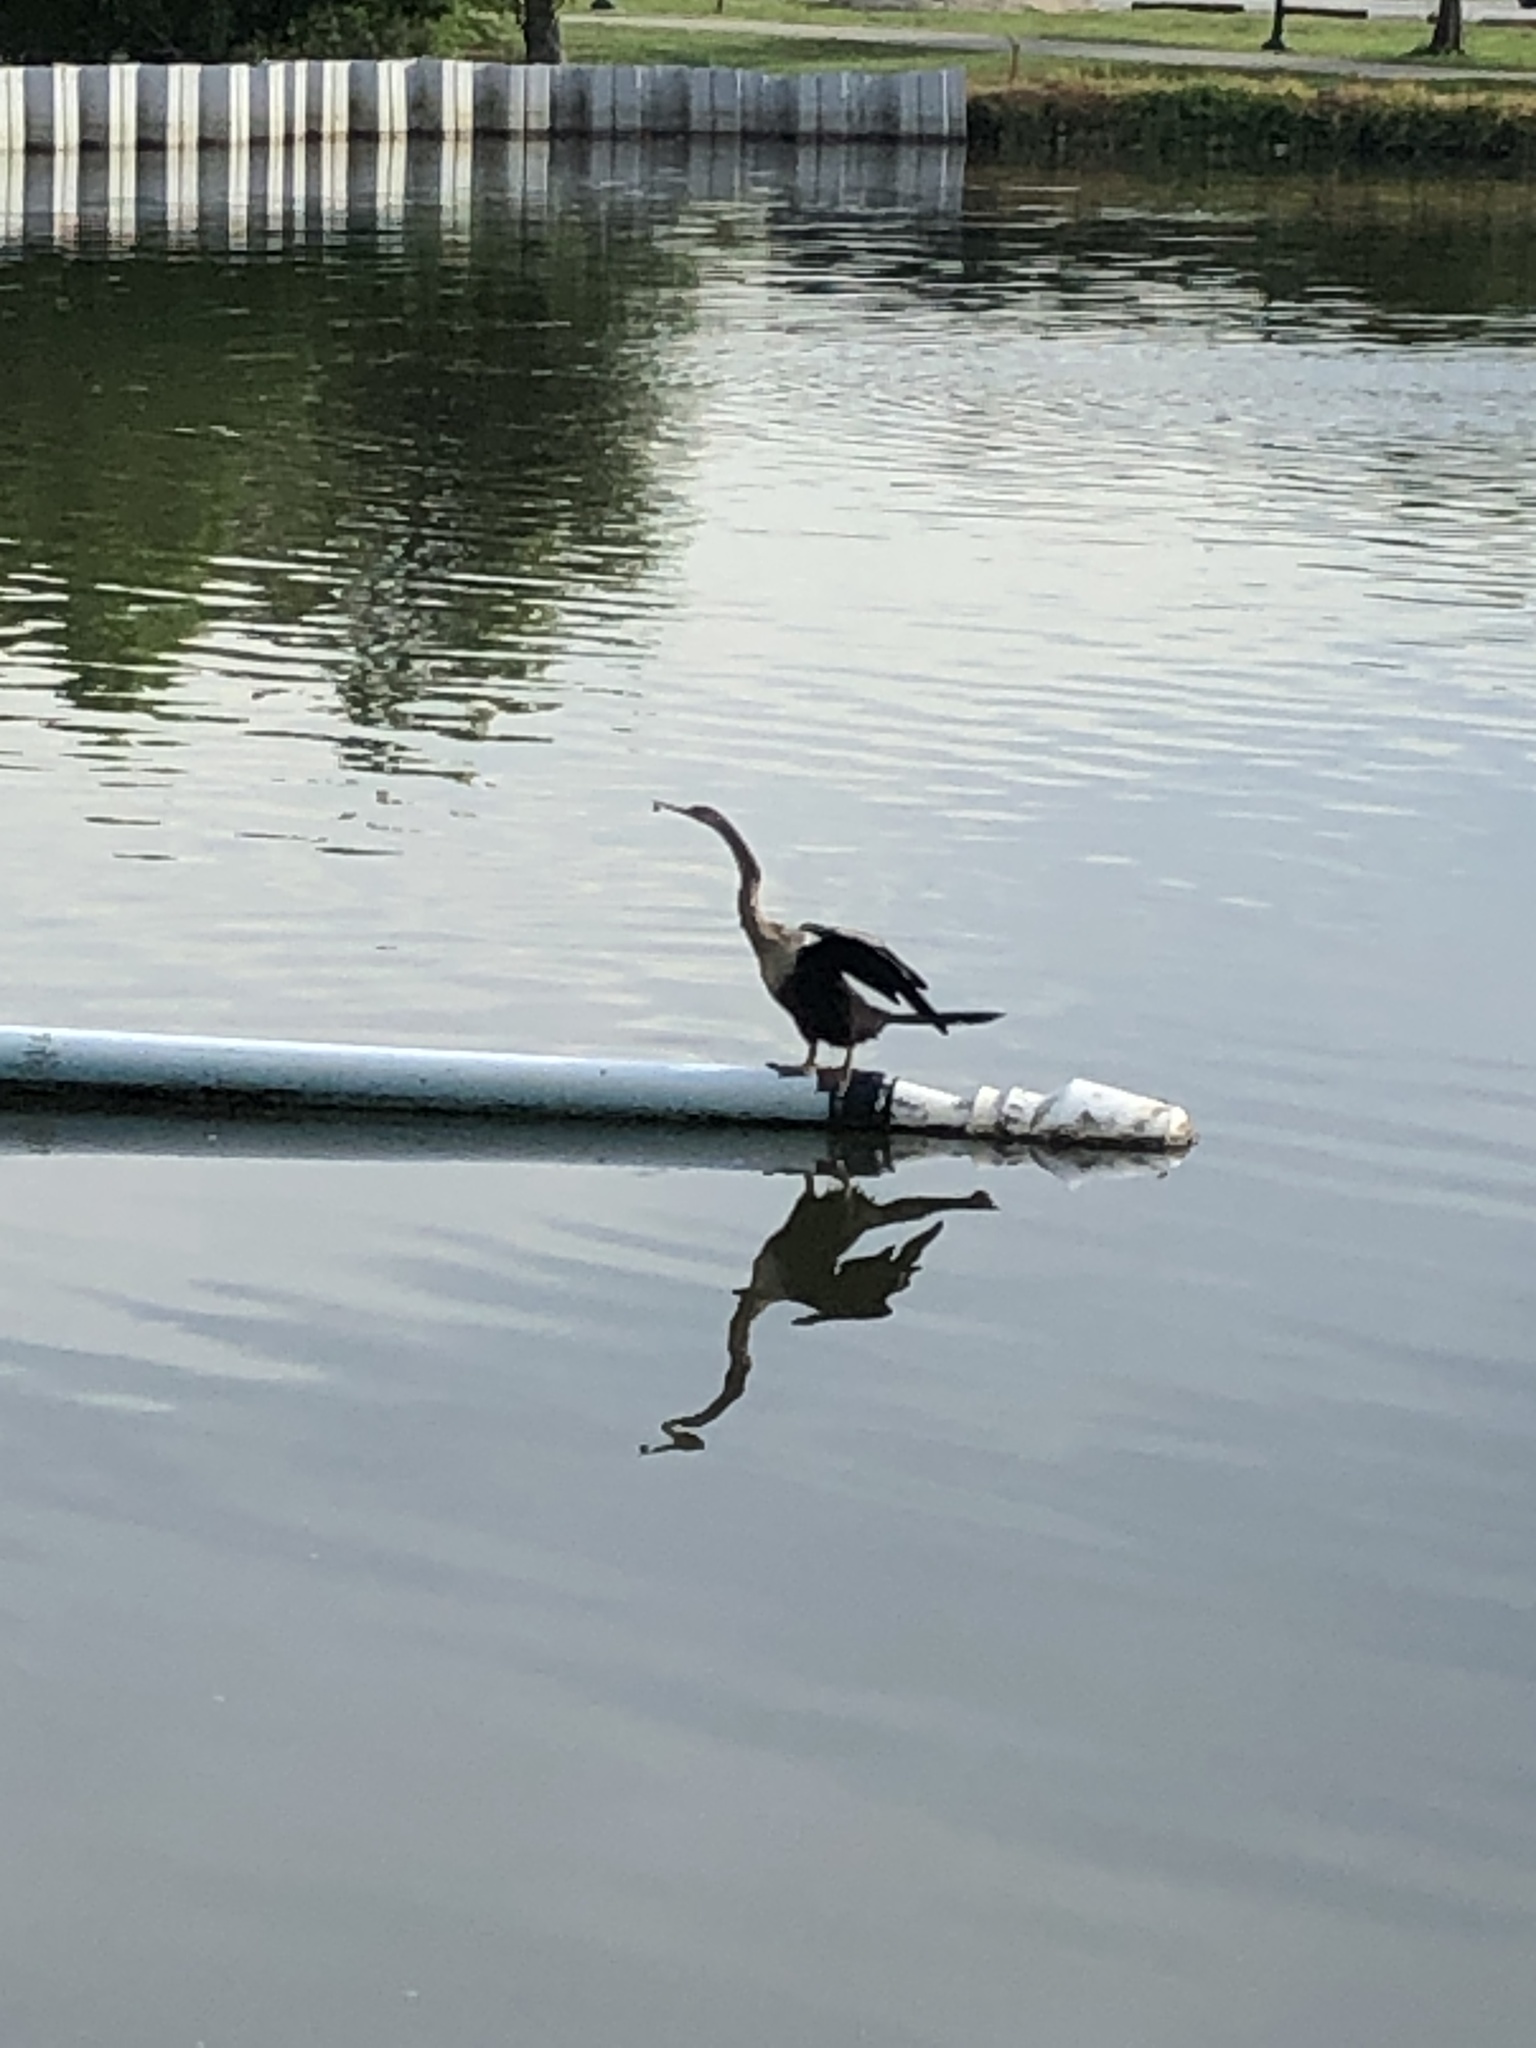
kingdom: Animalia
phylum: Chordata
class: Aves
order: Suliformes
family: Anhingidae
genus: Anhinga
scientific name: Anhinga anhinga
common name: Anhinga
